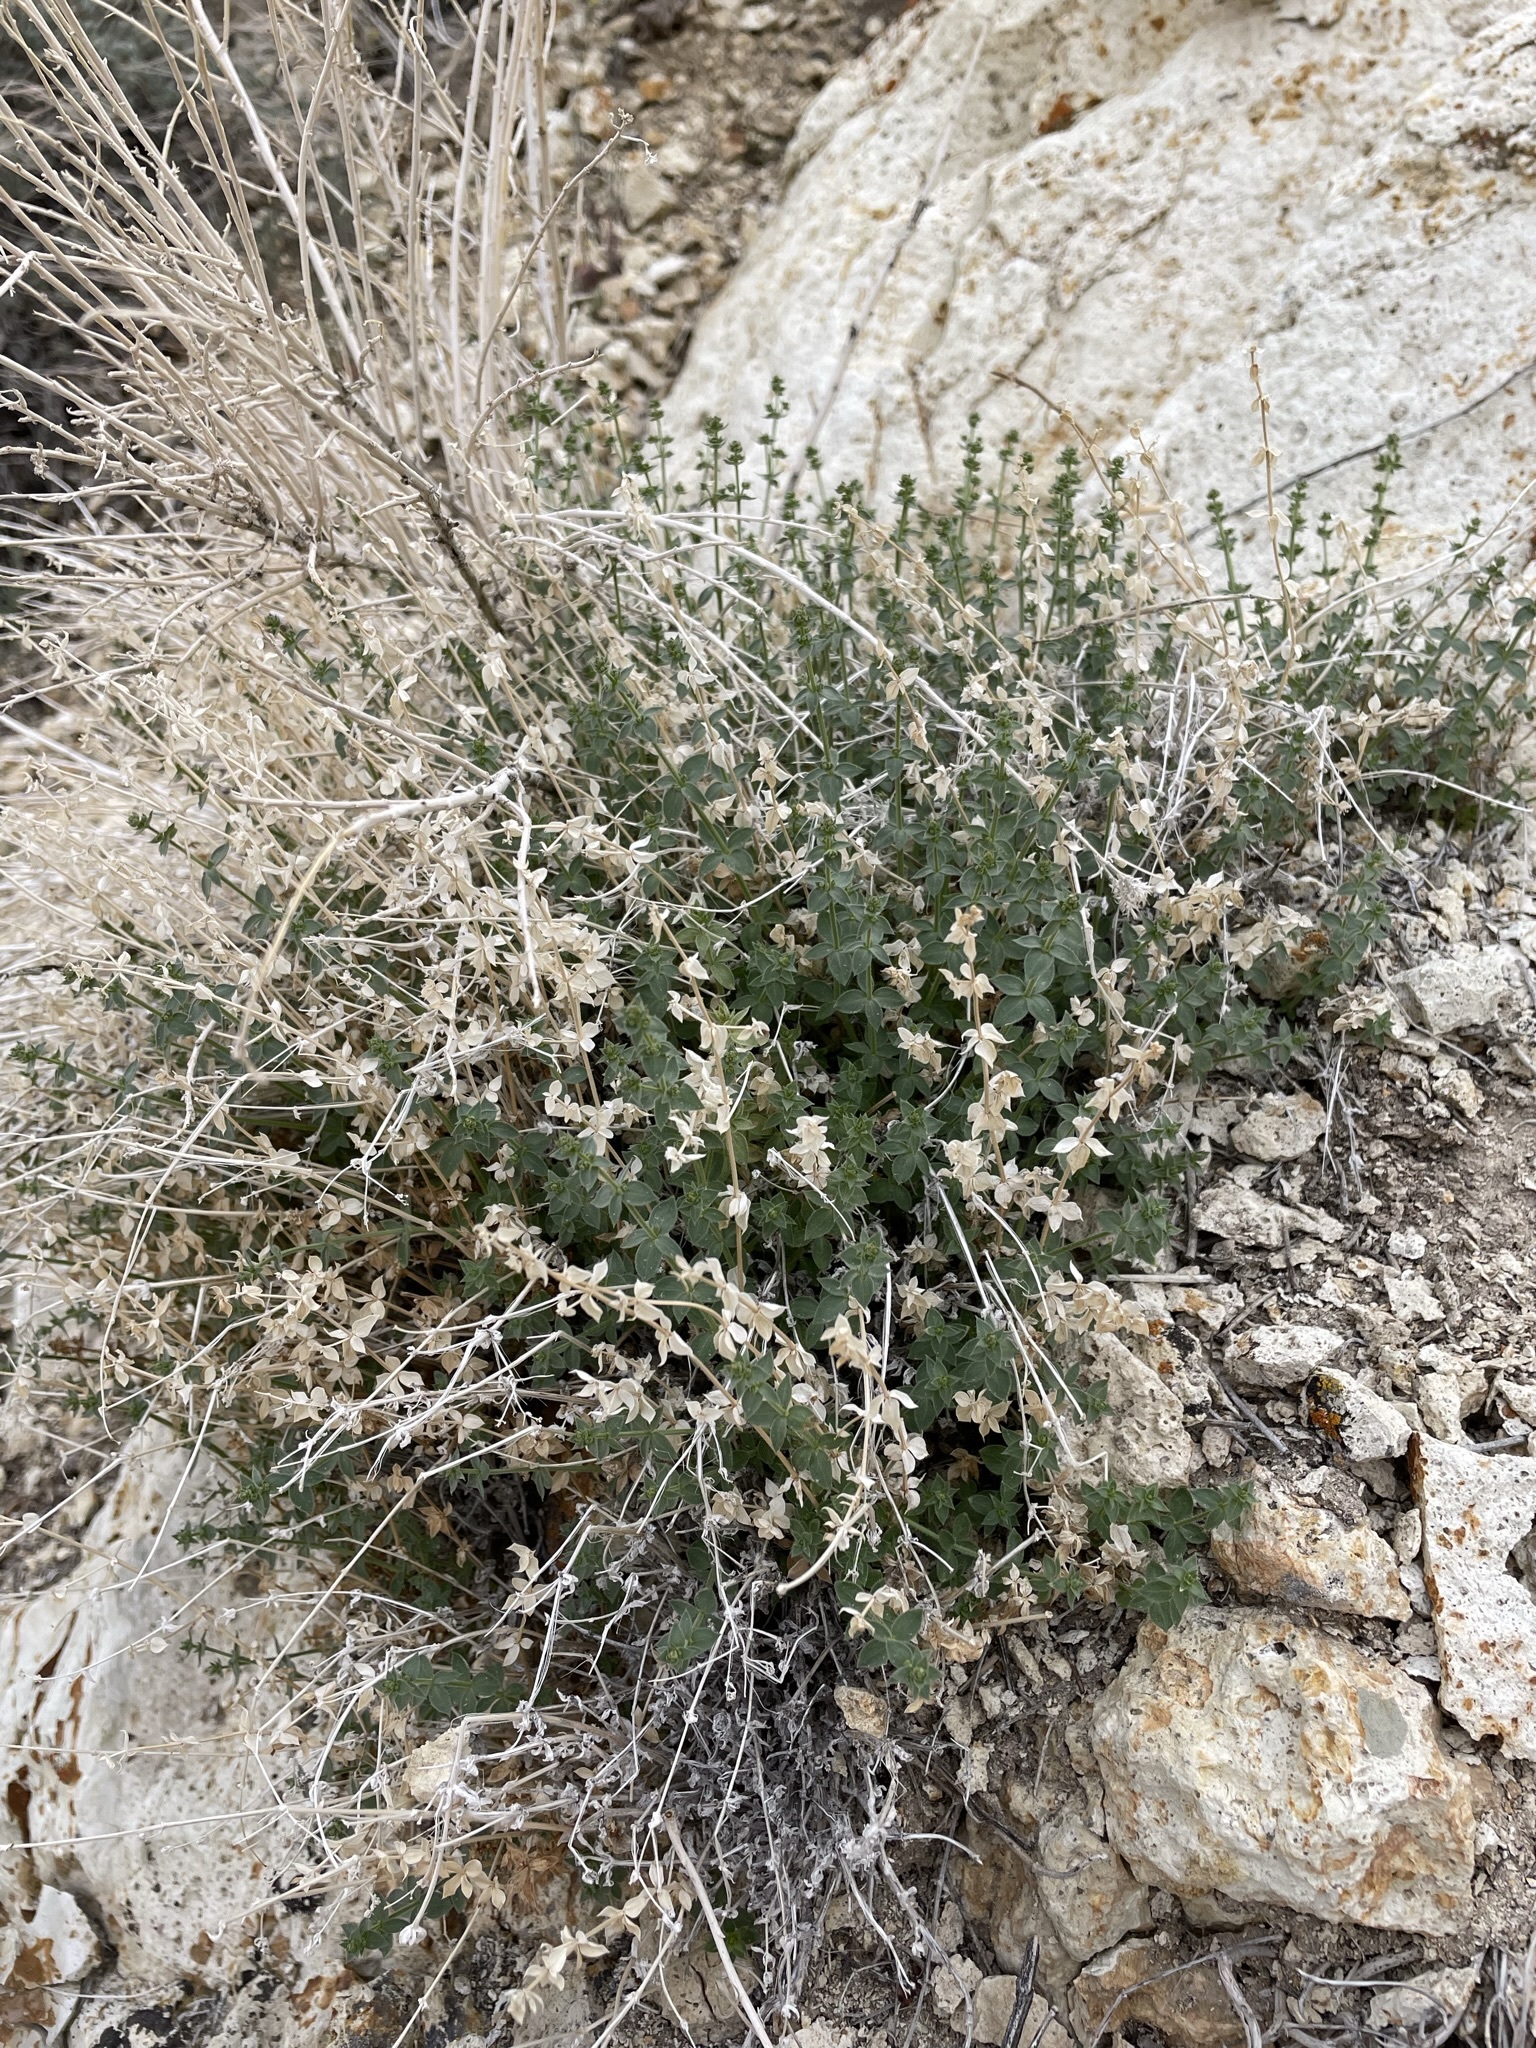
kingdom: Plantae
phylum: Tracheophyta
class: Magnoliopsida
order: Gentianales
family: Rubiaceae
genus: Galium
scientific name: Galium multiflorum
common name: Many-flowered bedstraw
